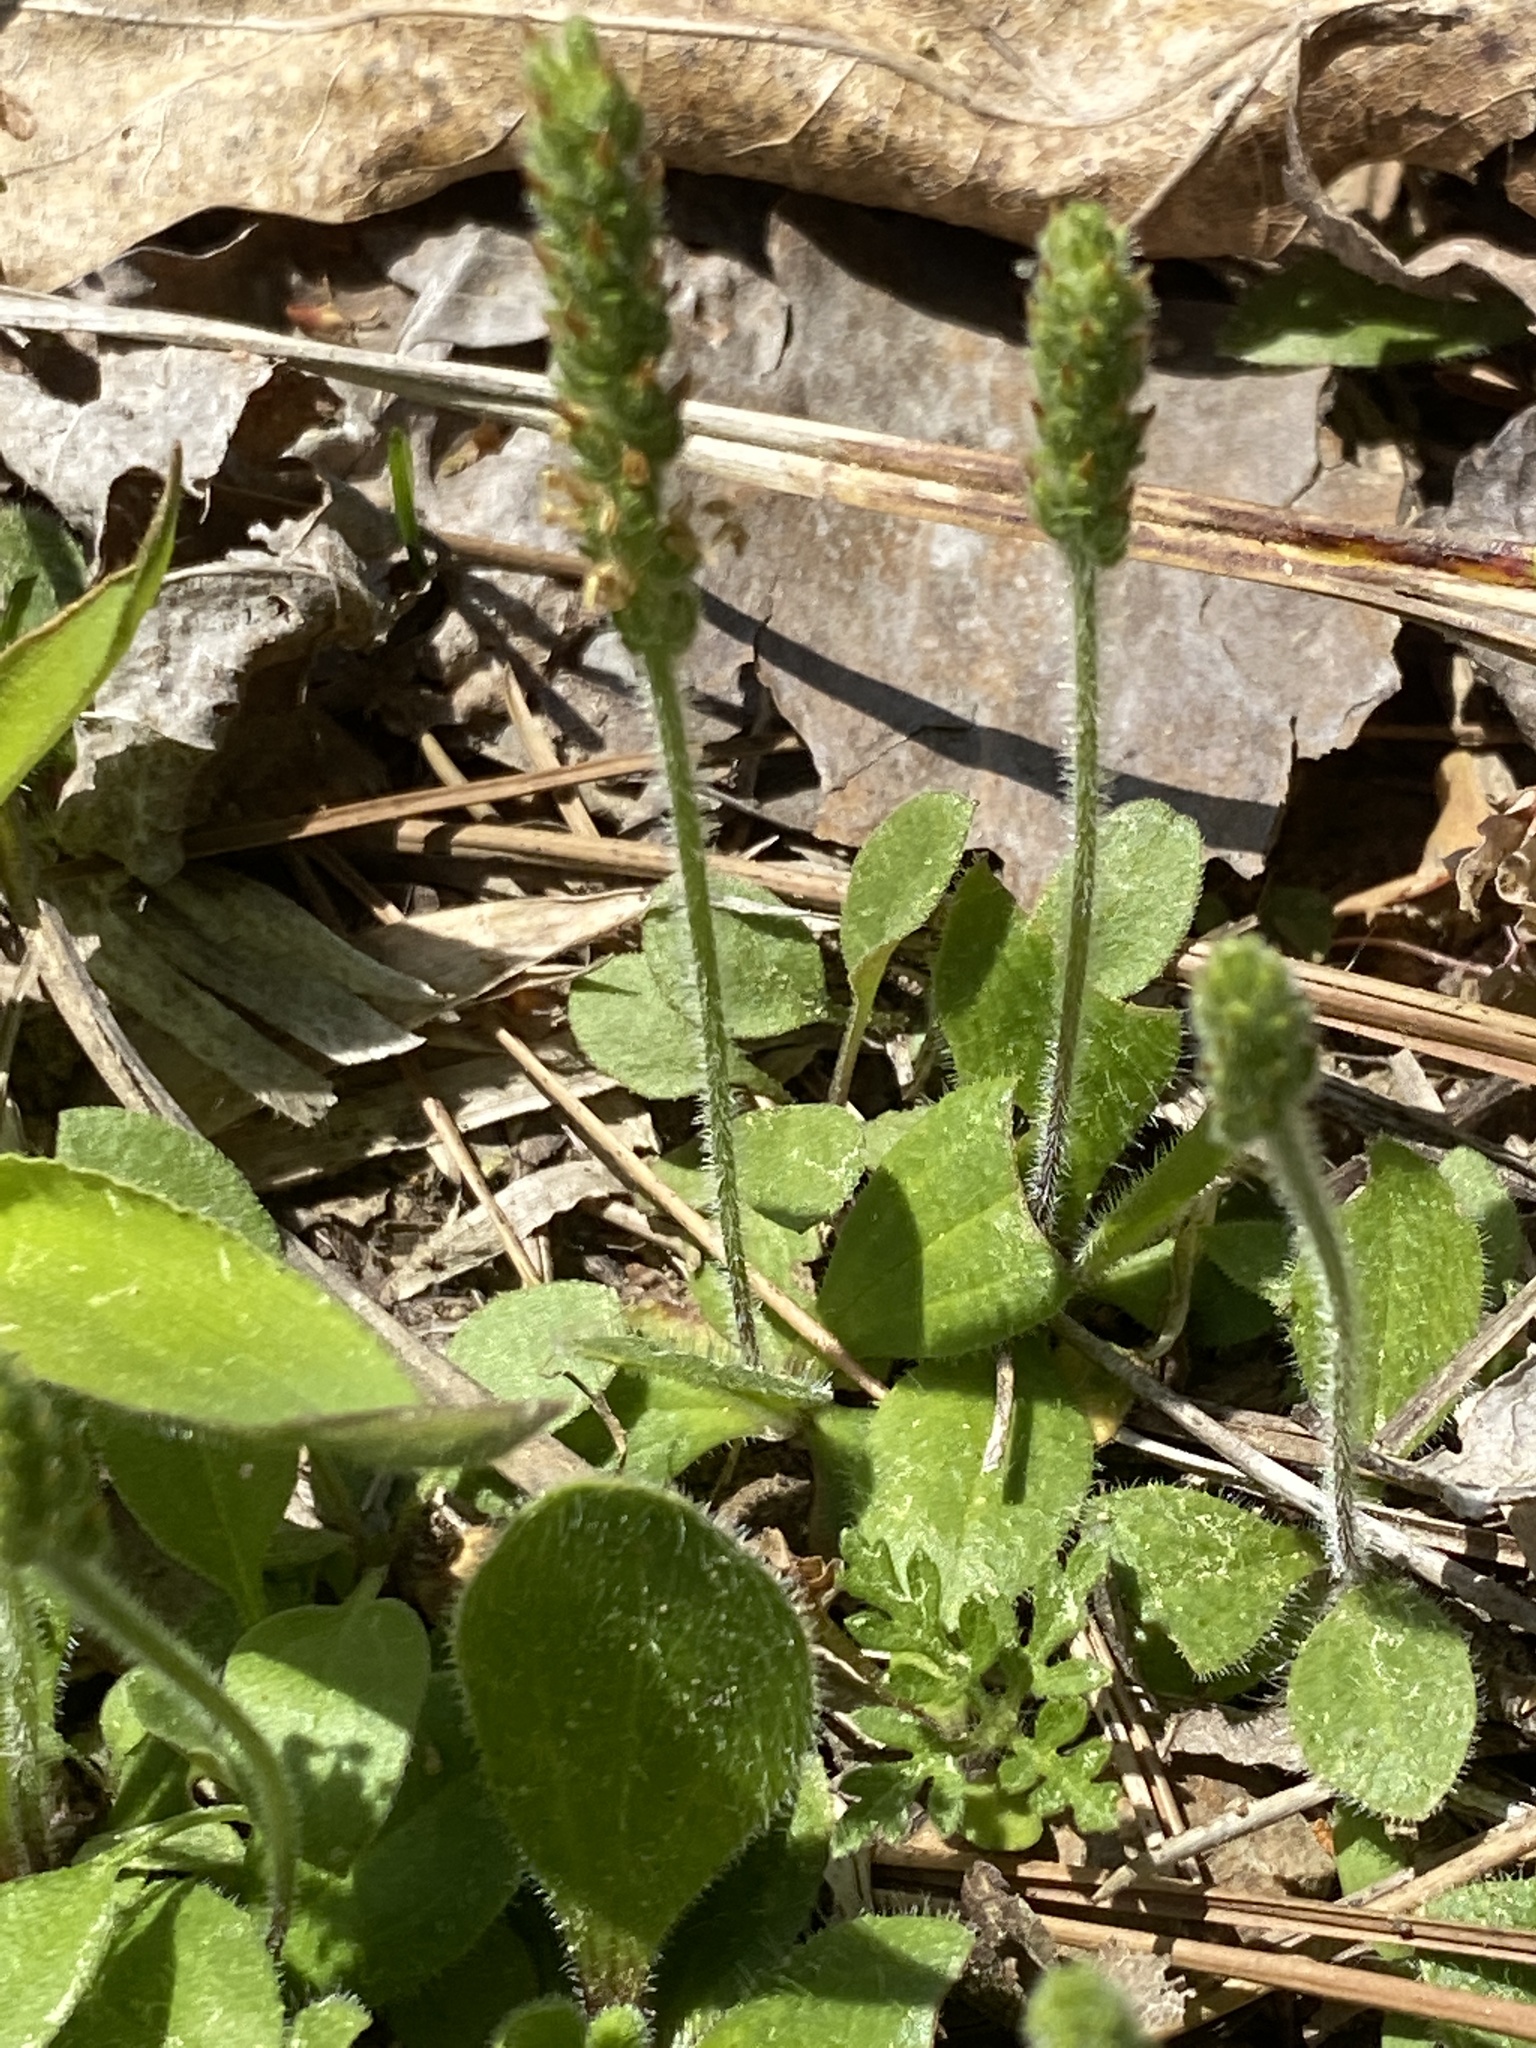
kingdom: Plantae
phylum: Tracheophyta
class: Magnoliopsida
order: Lamiales
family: Plantaginaceae
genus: Plantago
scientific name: Plantago virginica
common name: Hoary plantain
